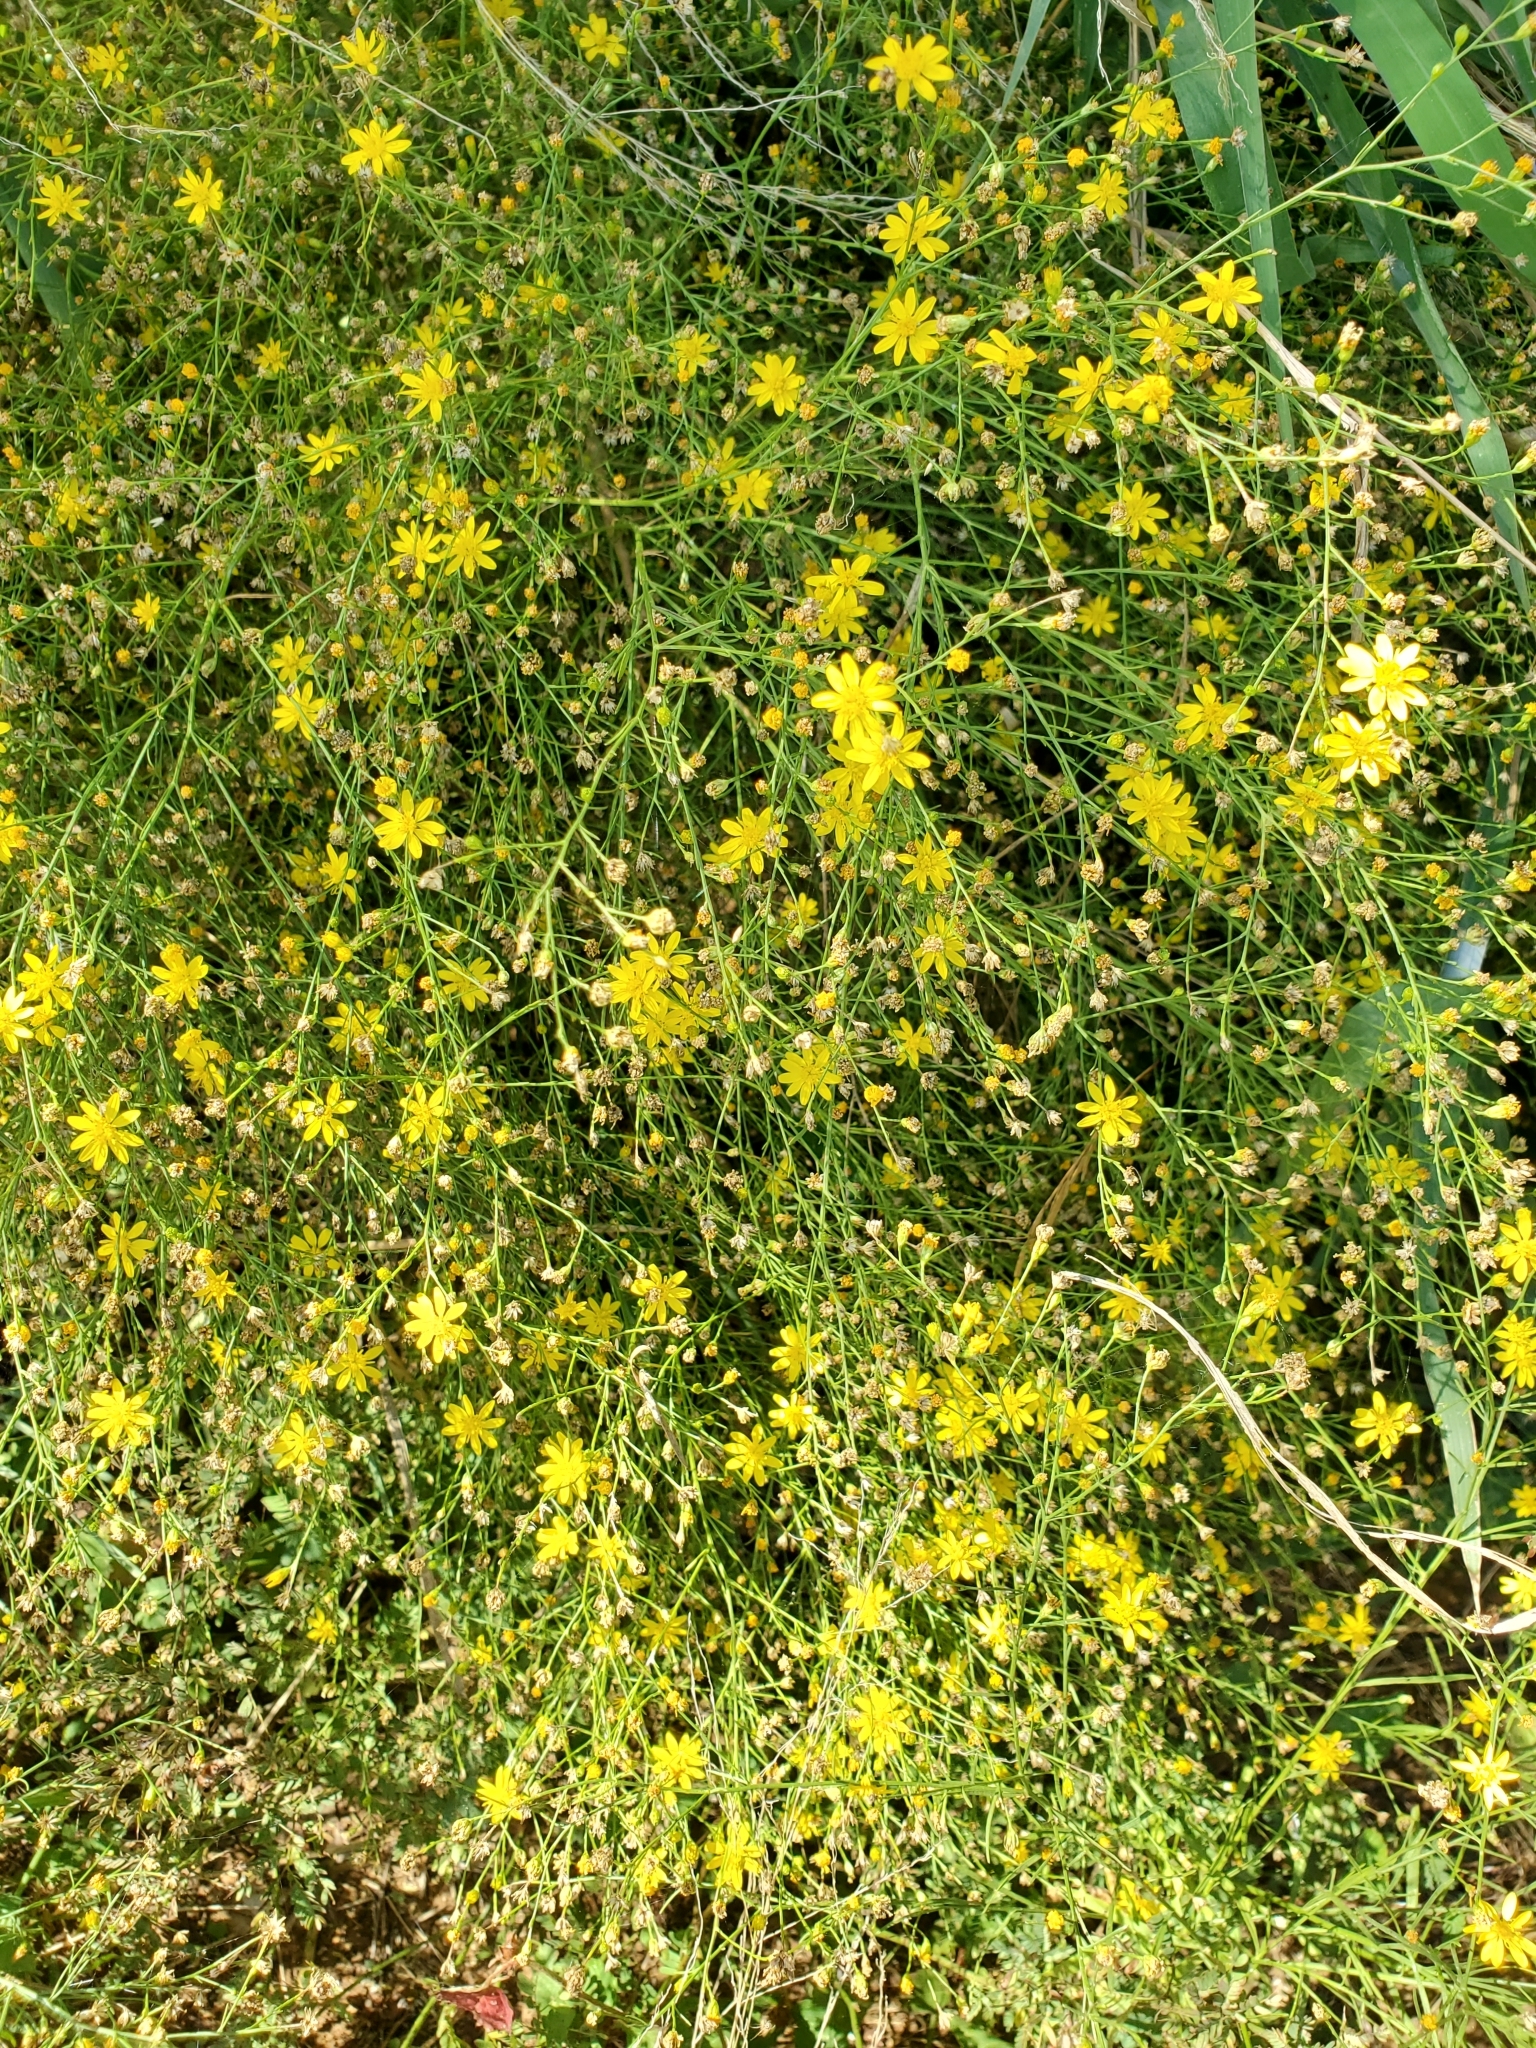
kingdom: Plantae
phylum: Tracheophyta
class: Magnoliopsida
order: Asterales
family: Asteraceae
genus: Gutierrezia
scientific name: Gutierrezia texana
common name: Texas snakeweed
